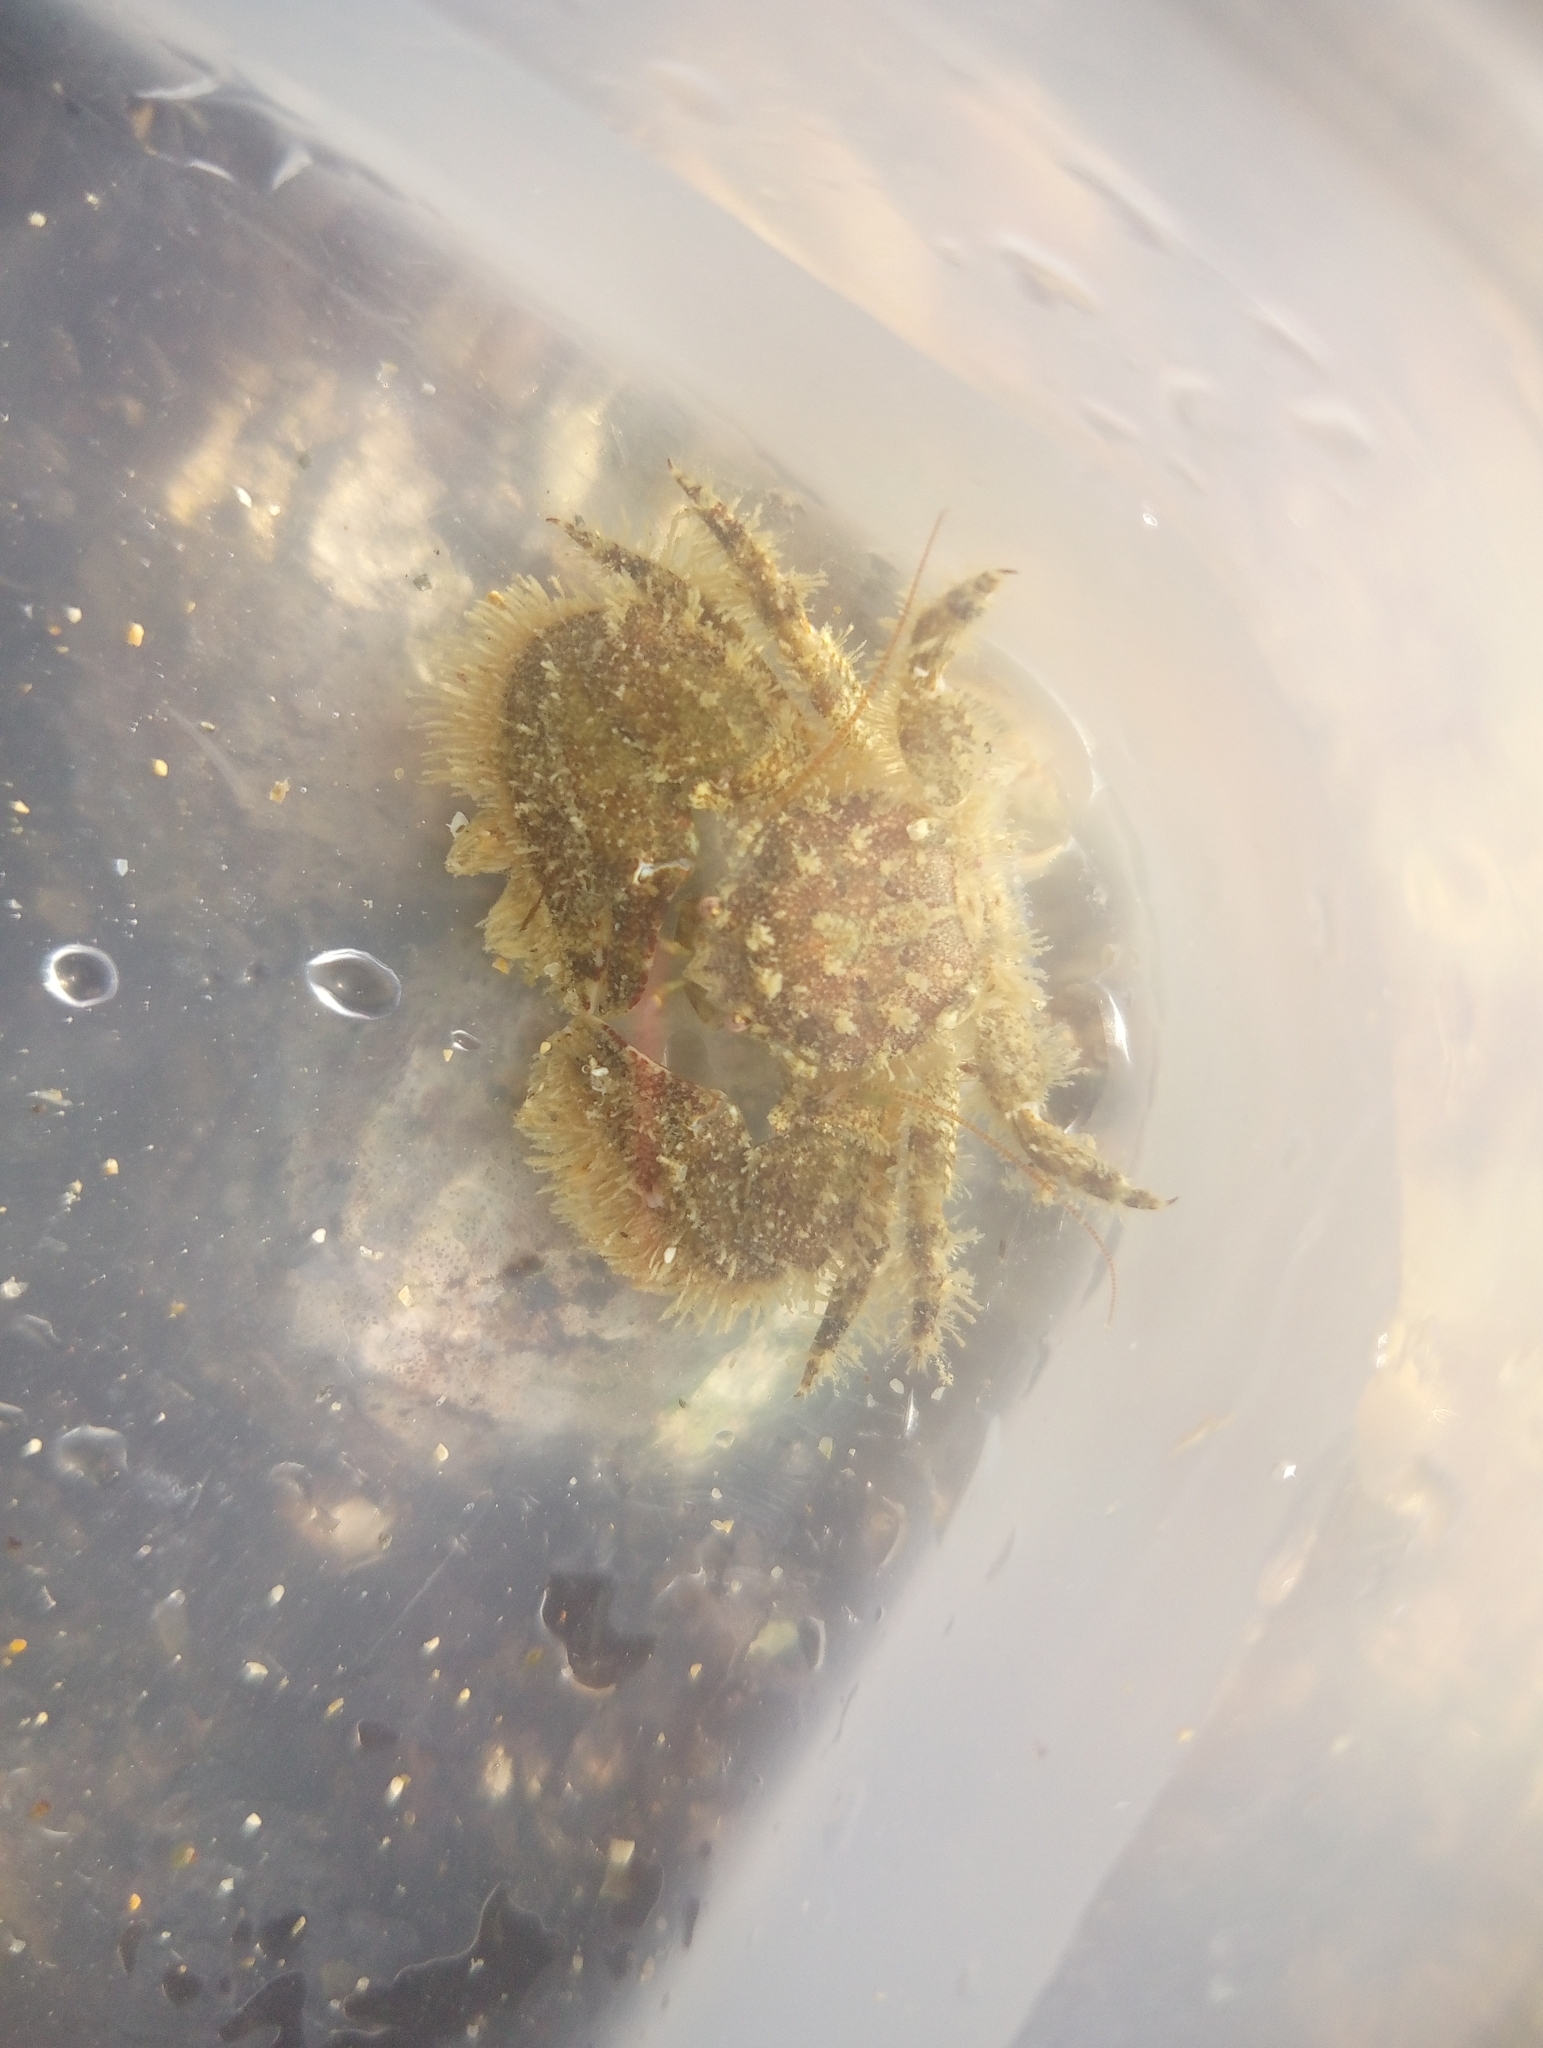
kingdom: Animalia
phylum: Arthropoda
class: Malacostraca
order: Decapoda
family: Porcellanidae
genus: Porcellana
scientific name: Porcellana platycheles
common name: Porcelain crab
